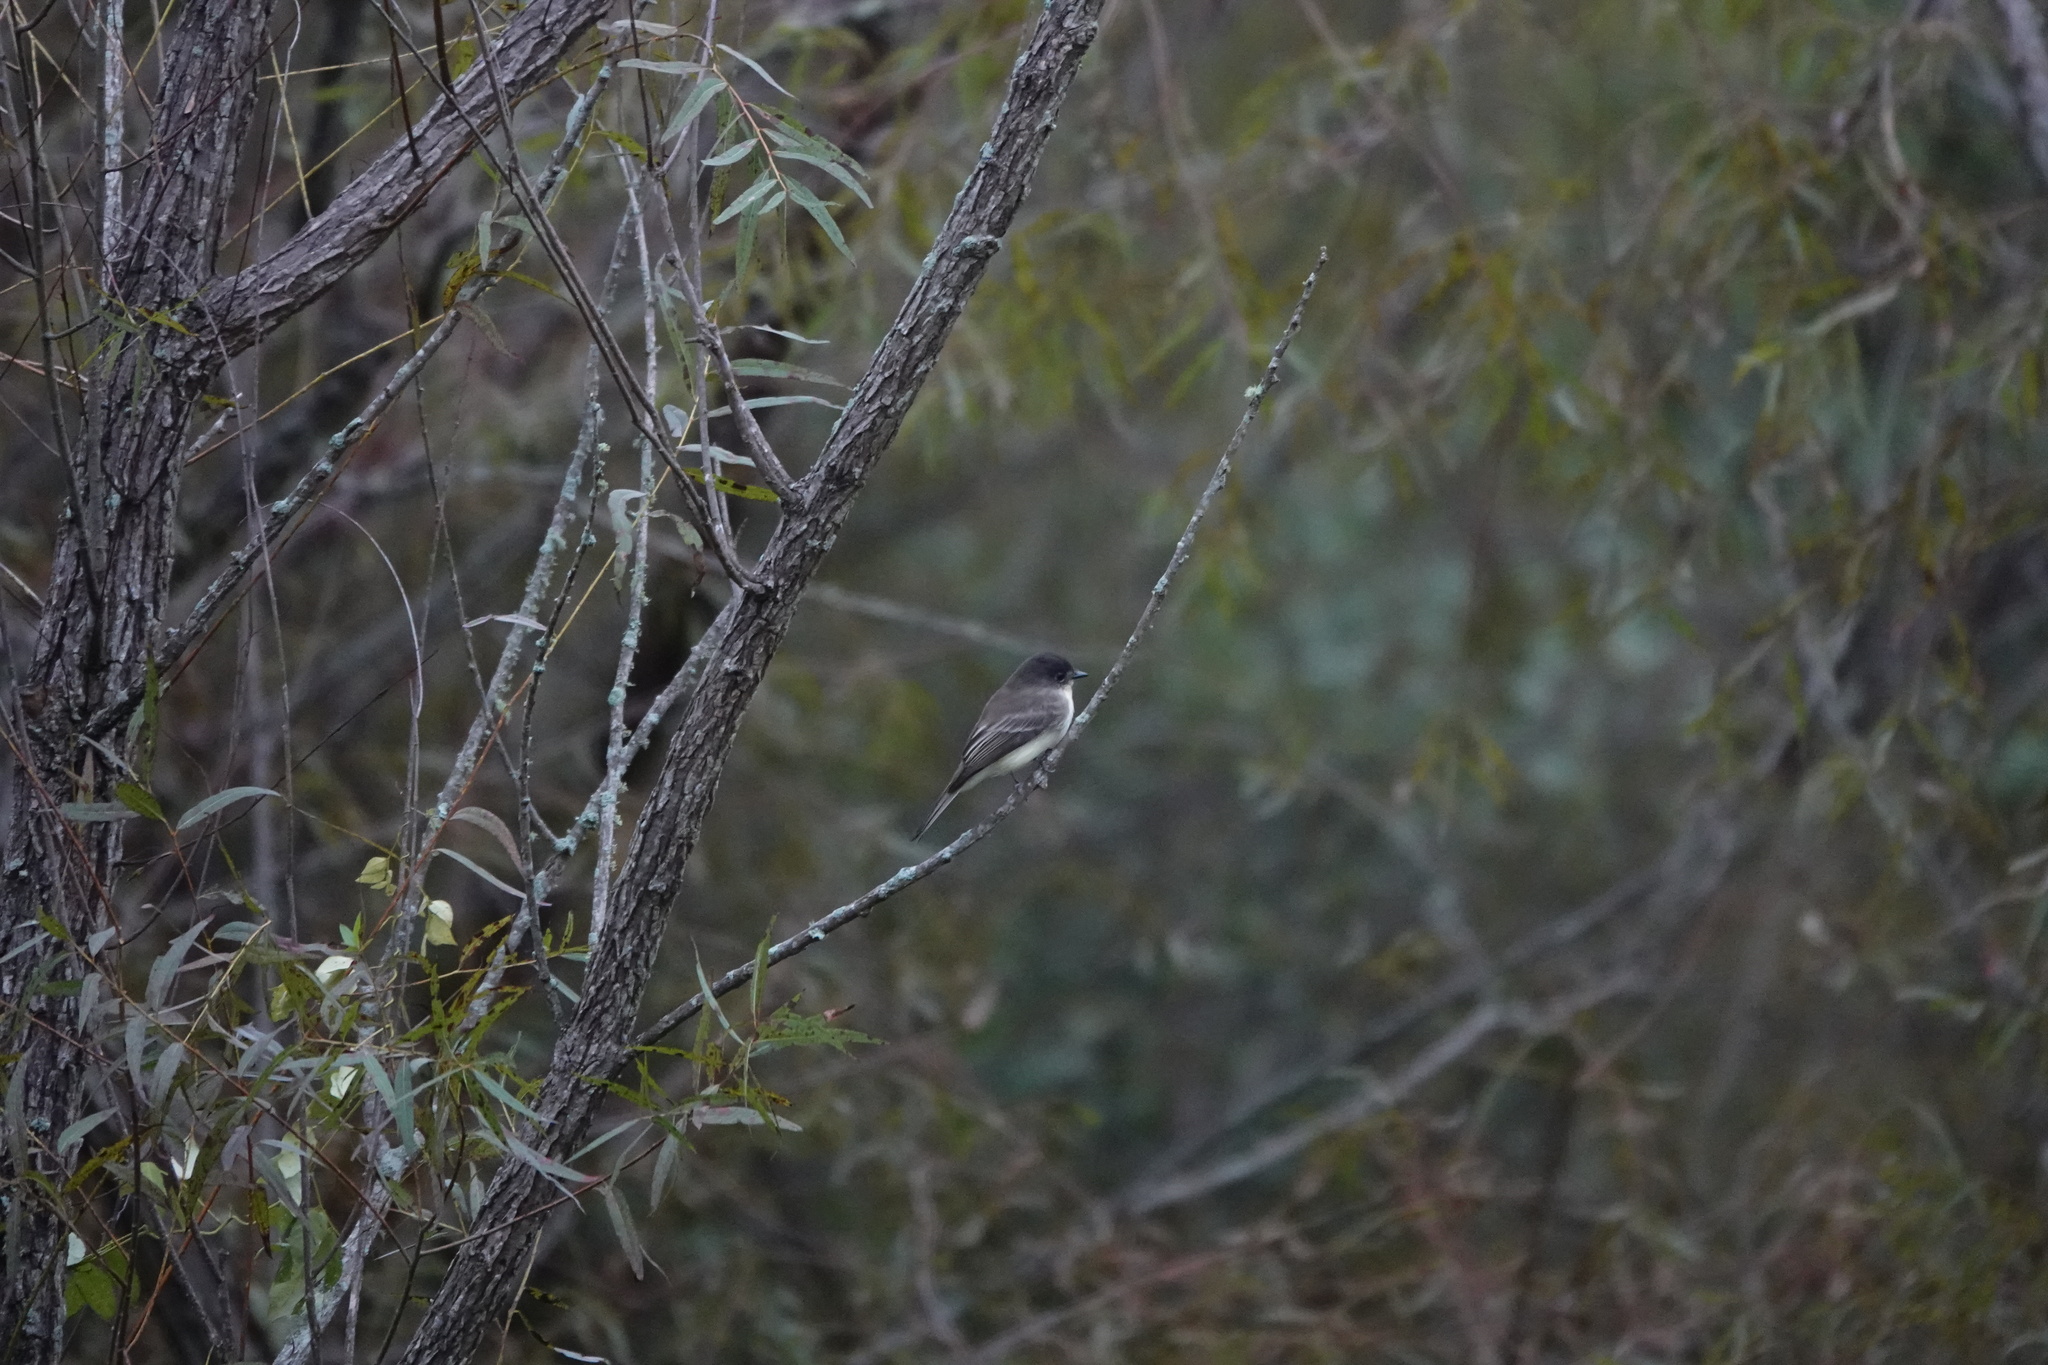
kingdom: Animalia
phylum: Chordata
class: Aves
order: Passeriformes
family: Tyrannidae
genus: Sayornis
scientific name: Sayornis phoebe
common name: Eastern phoebe
